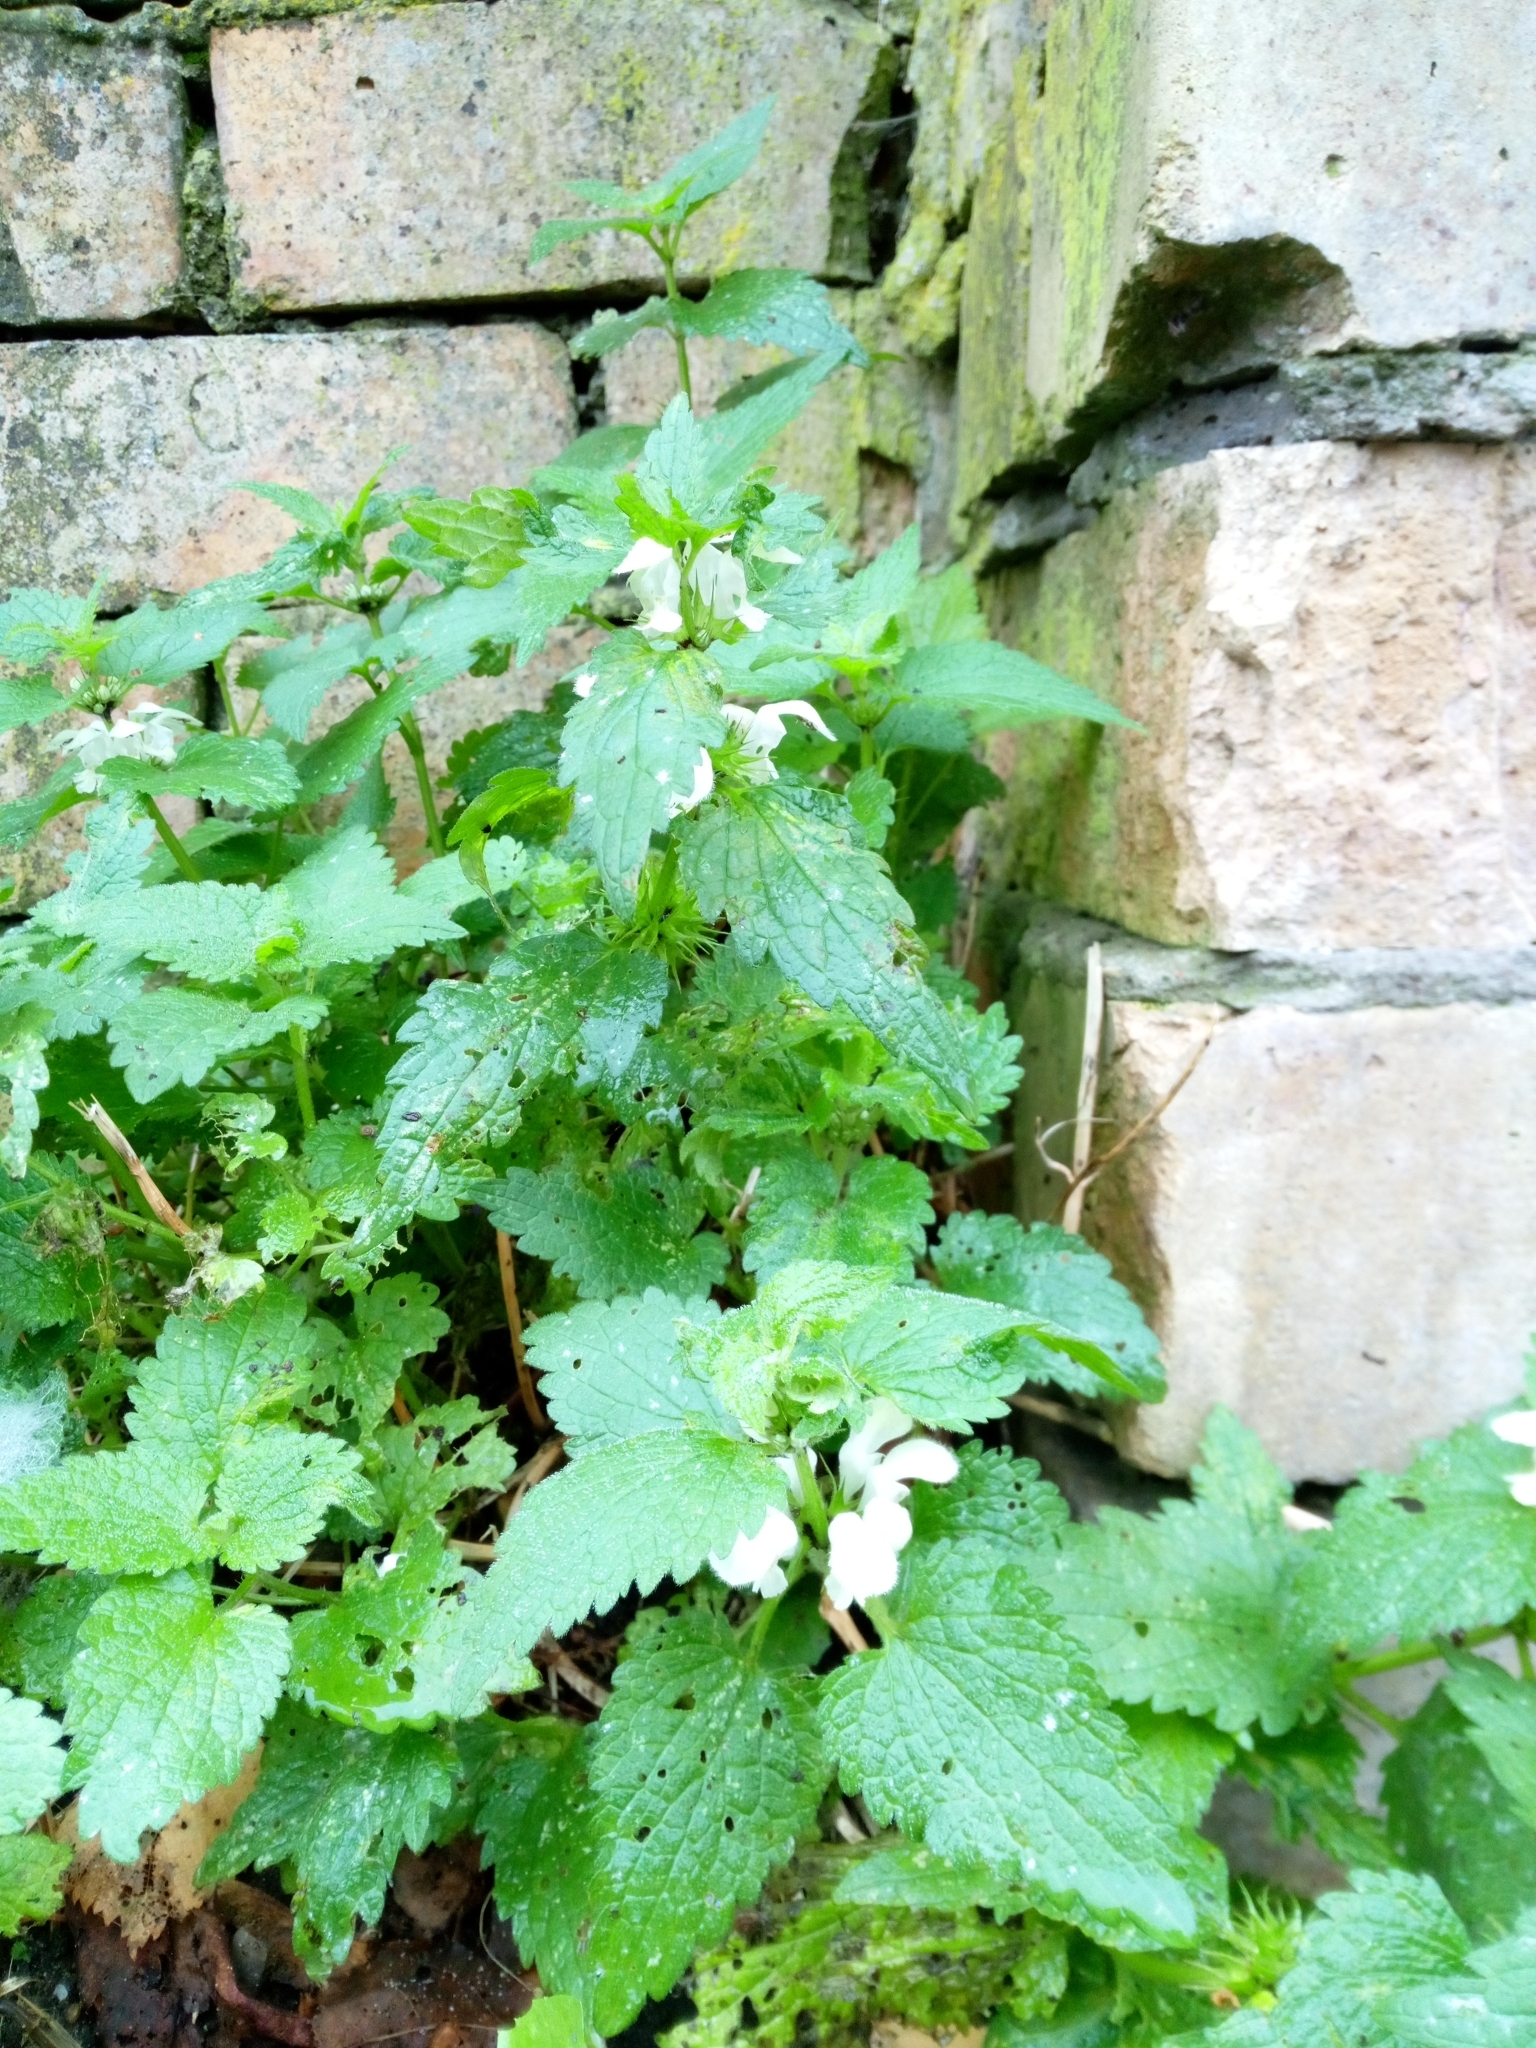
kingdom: Plantae
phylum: Tracheophyta
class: Magnoliopsida
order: Lamiales
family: Lamiaceae
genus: Lamium
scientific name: Lamium album
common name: White dead-nettle
